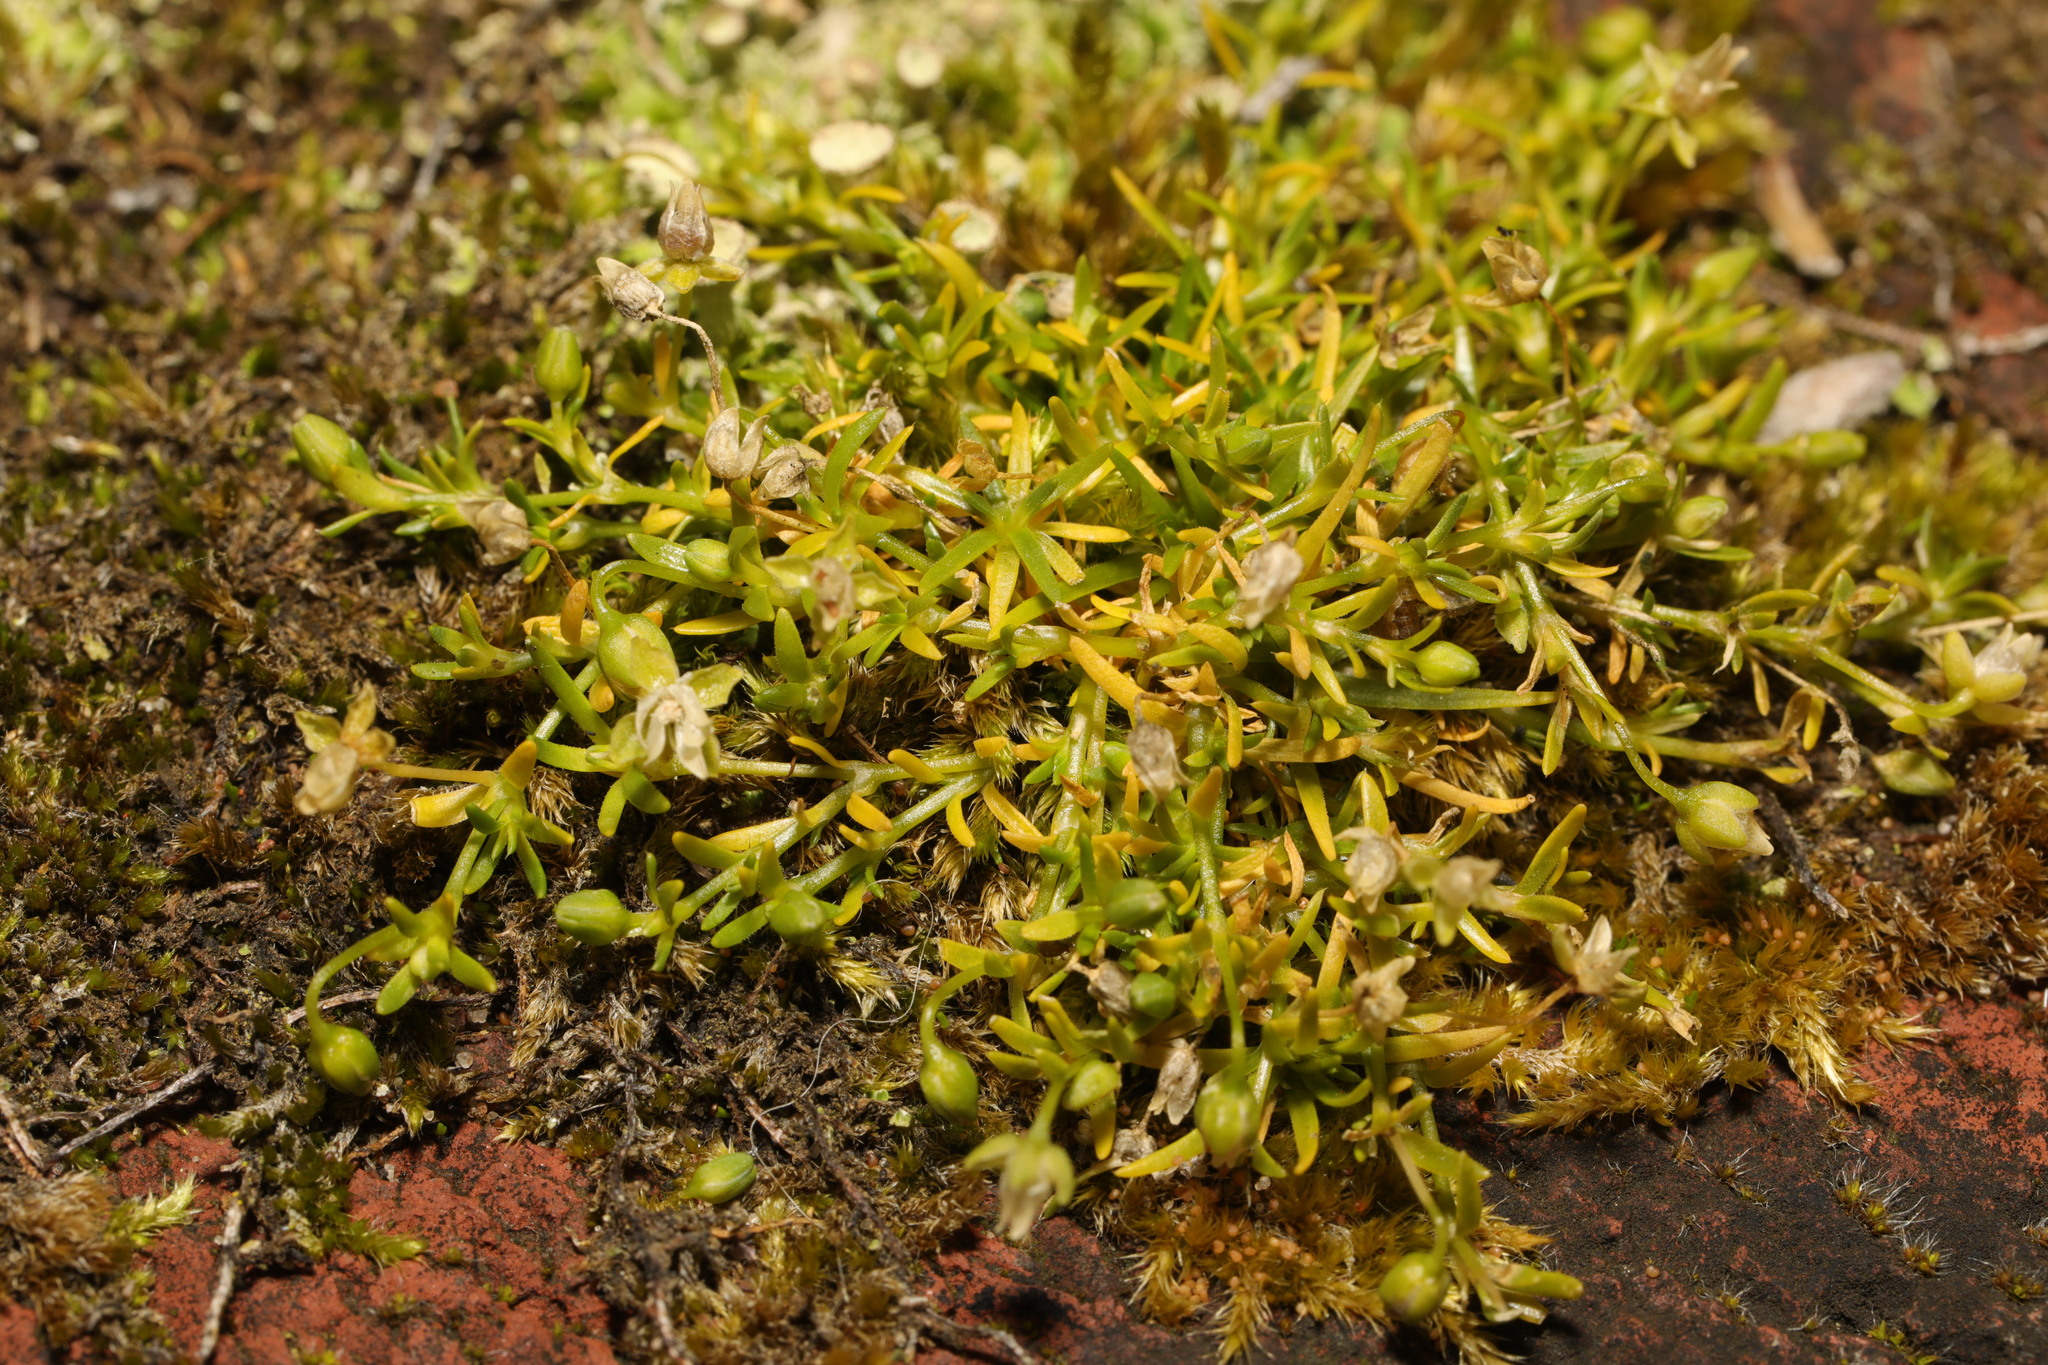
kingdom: Plantae
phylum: Tracheophyta
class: Magnoliopsida
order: Caryophyllales
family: Caryophyllaceae
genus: Sagina
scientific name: Sagina procumbens
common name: Procumbent pearlwort
